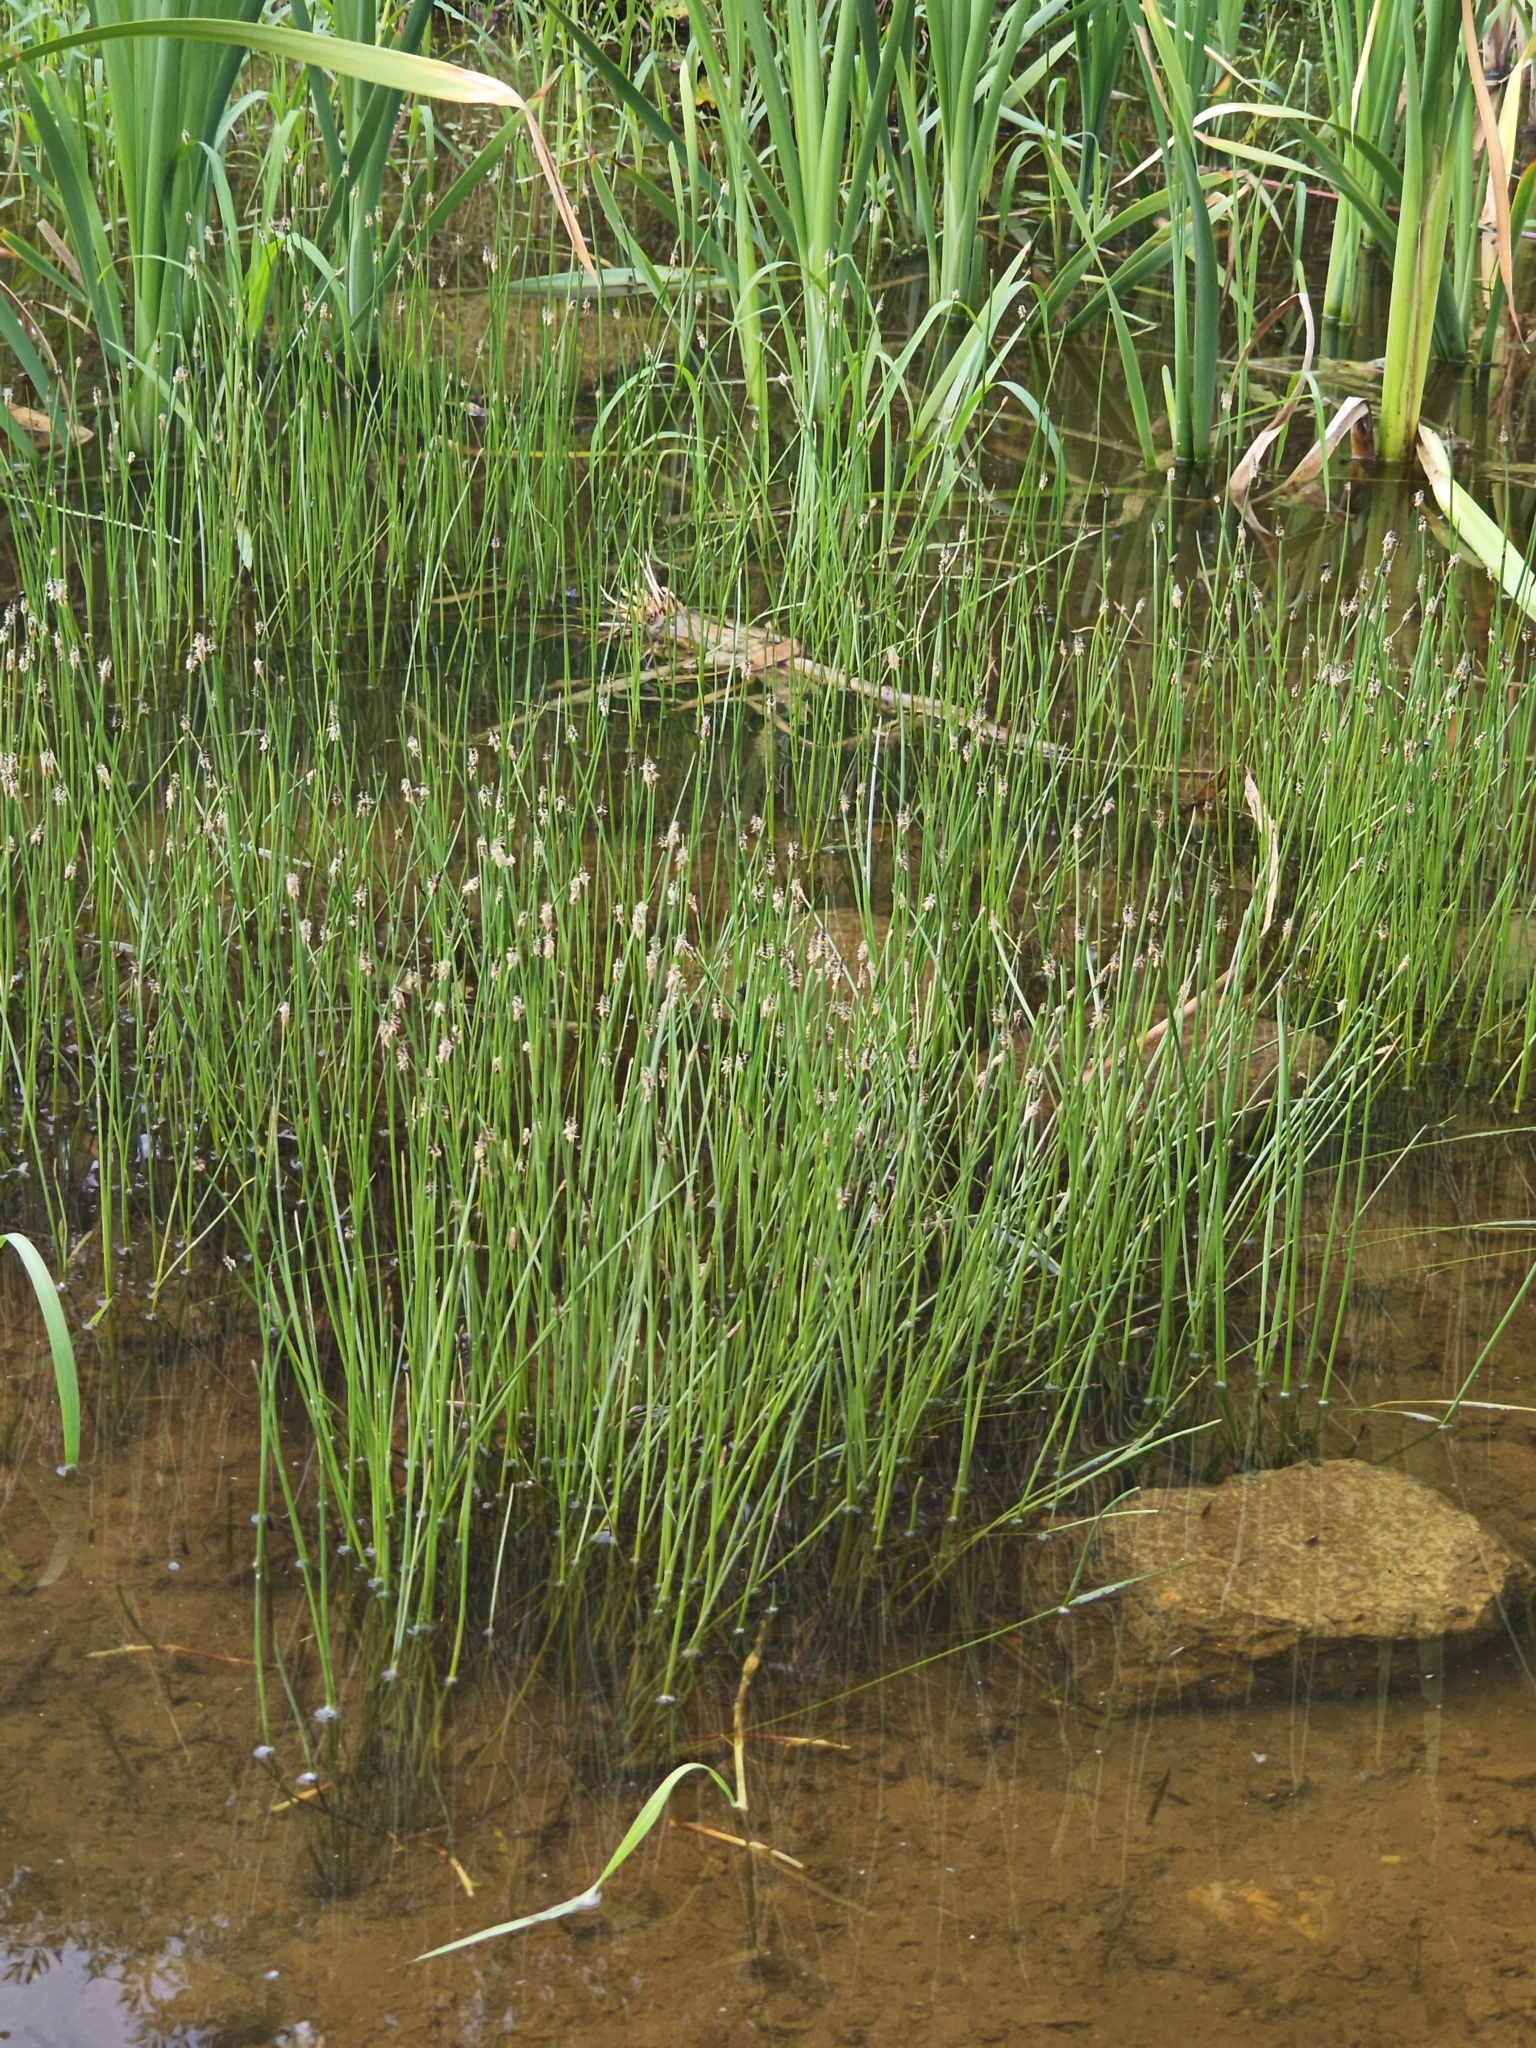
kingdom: Plantae
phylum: Tracheophyta
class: Liliopsida
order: Poales
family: Cyperaceae
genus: Eleocharis
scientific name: Eleocharis palustris
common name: Common spike-rush
